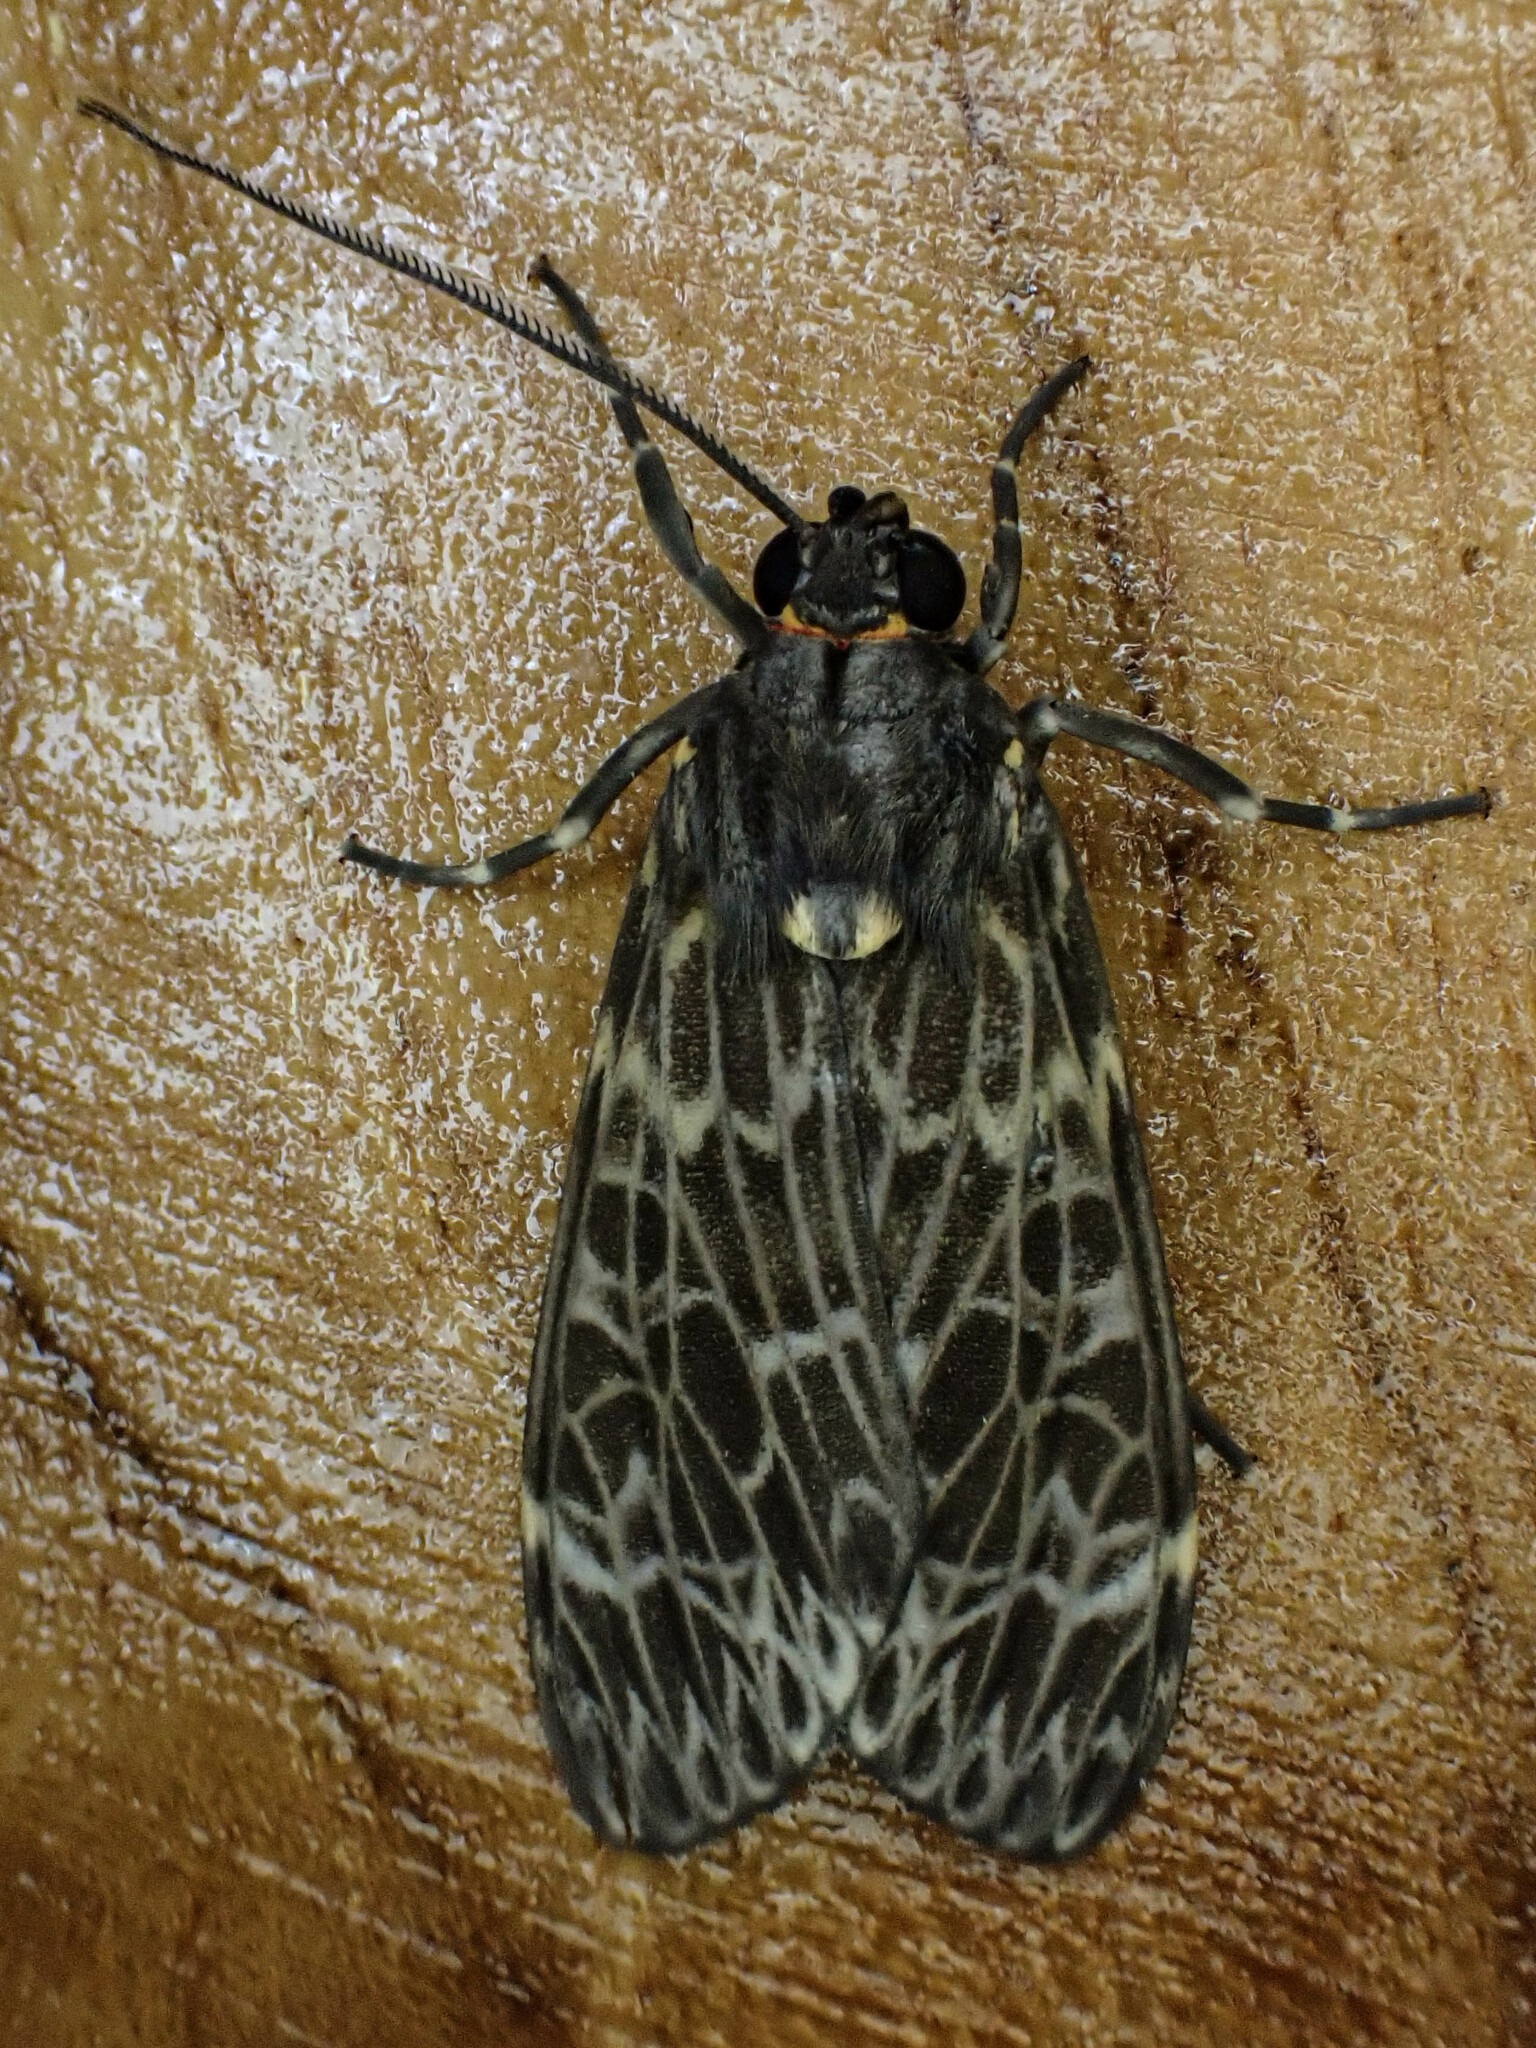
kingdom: Animalia
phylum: Arthropoda
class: Insecta
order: Lepidoptera
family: Erebidae
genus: Heliura
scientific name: Heliura gigantea
